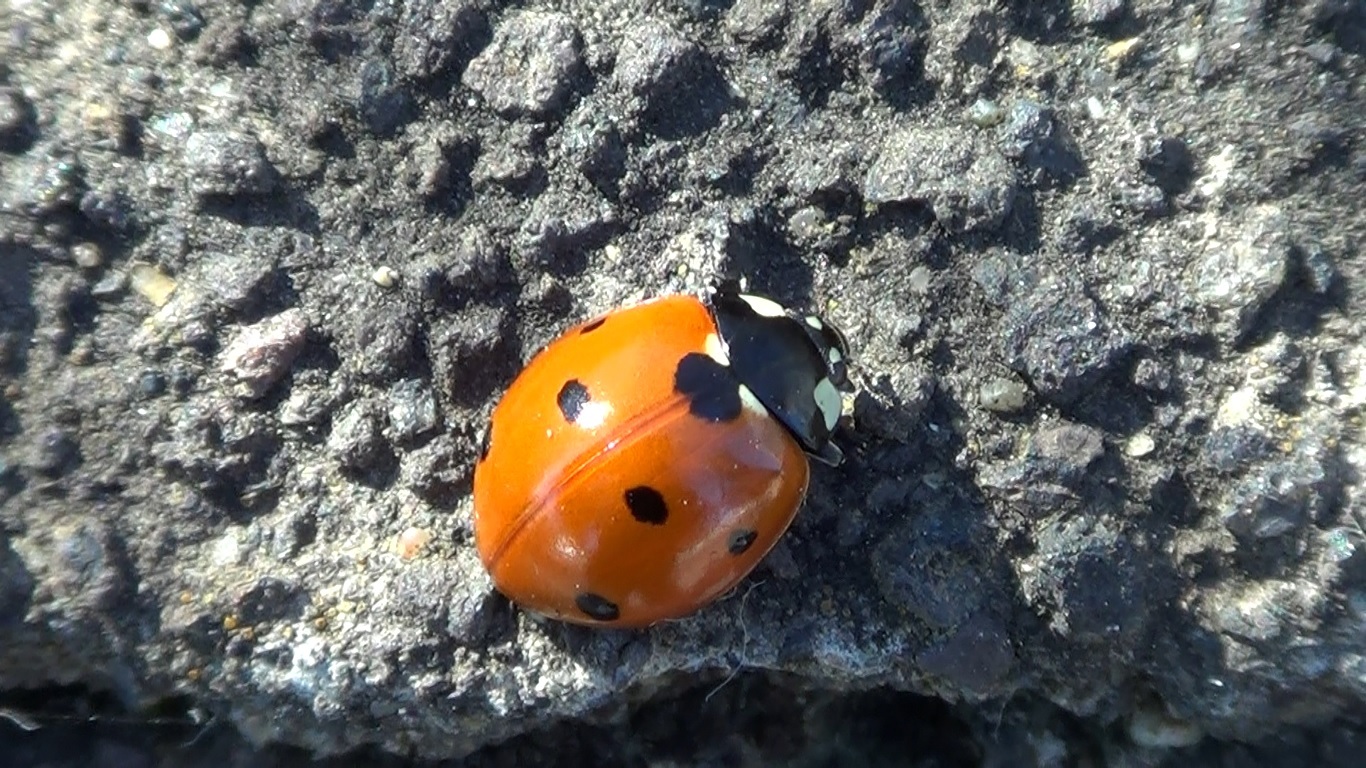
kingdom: Animalia
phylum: Arthropoda
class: Insecta
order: Coleoptera
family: Coccinellidae
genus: Coccinella
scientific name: Coccinella septempunctata
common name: Sevenspotted lady beetle
